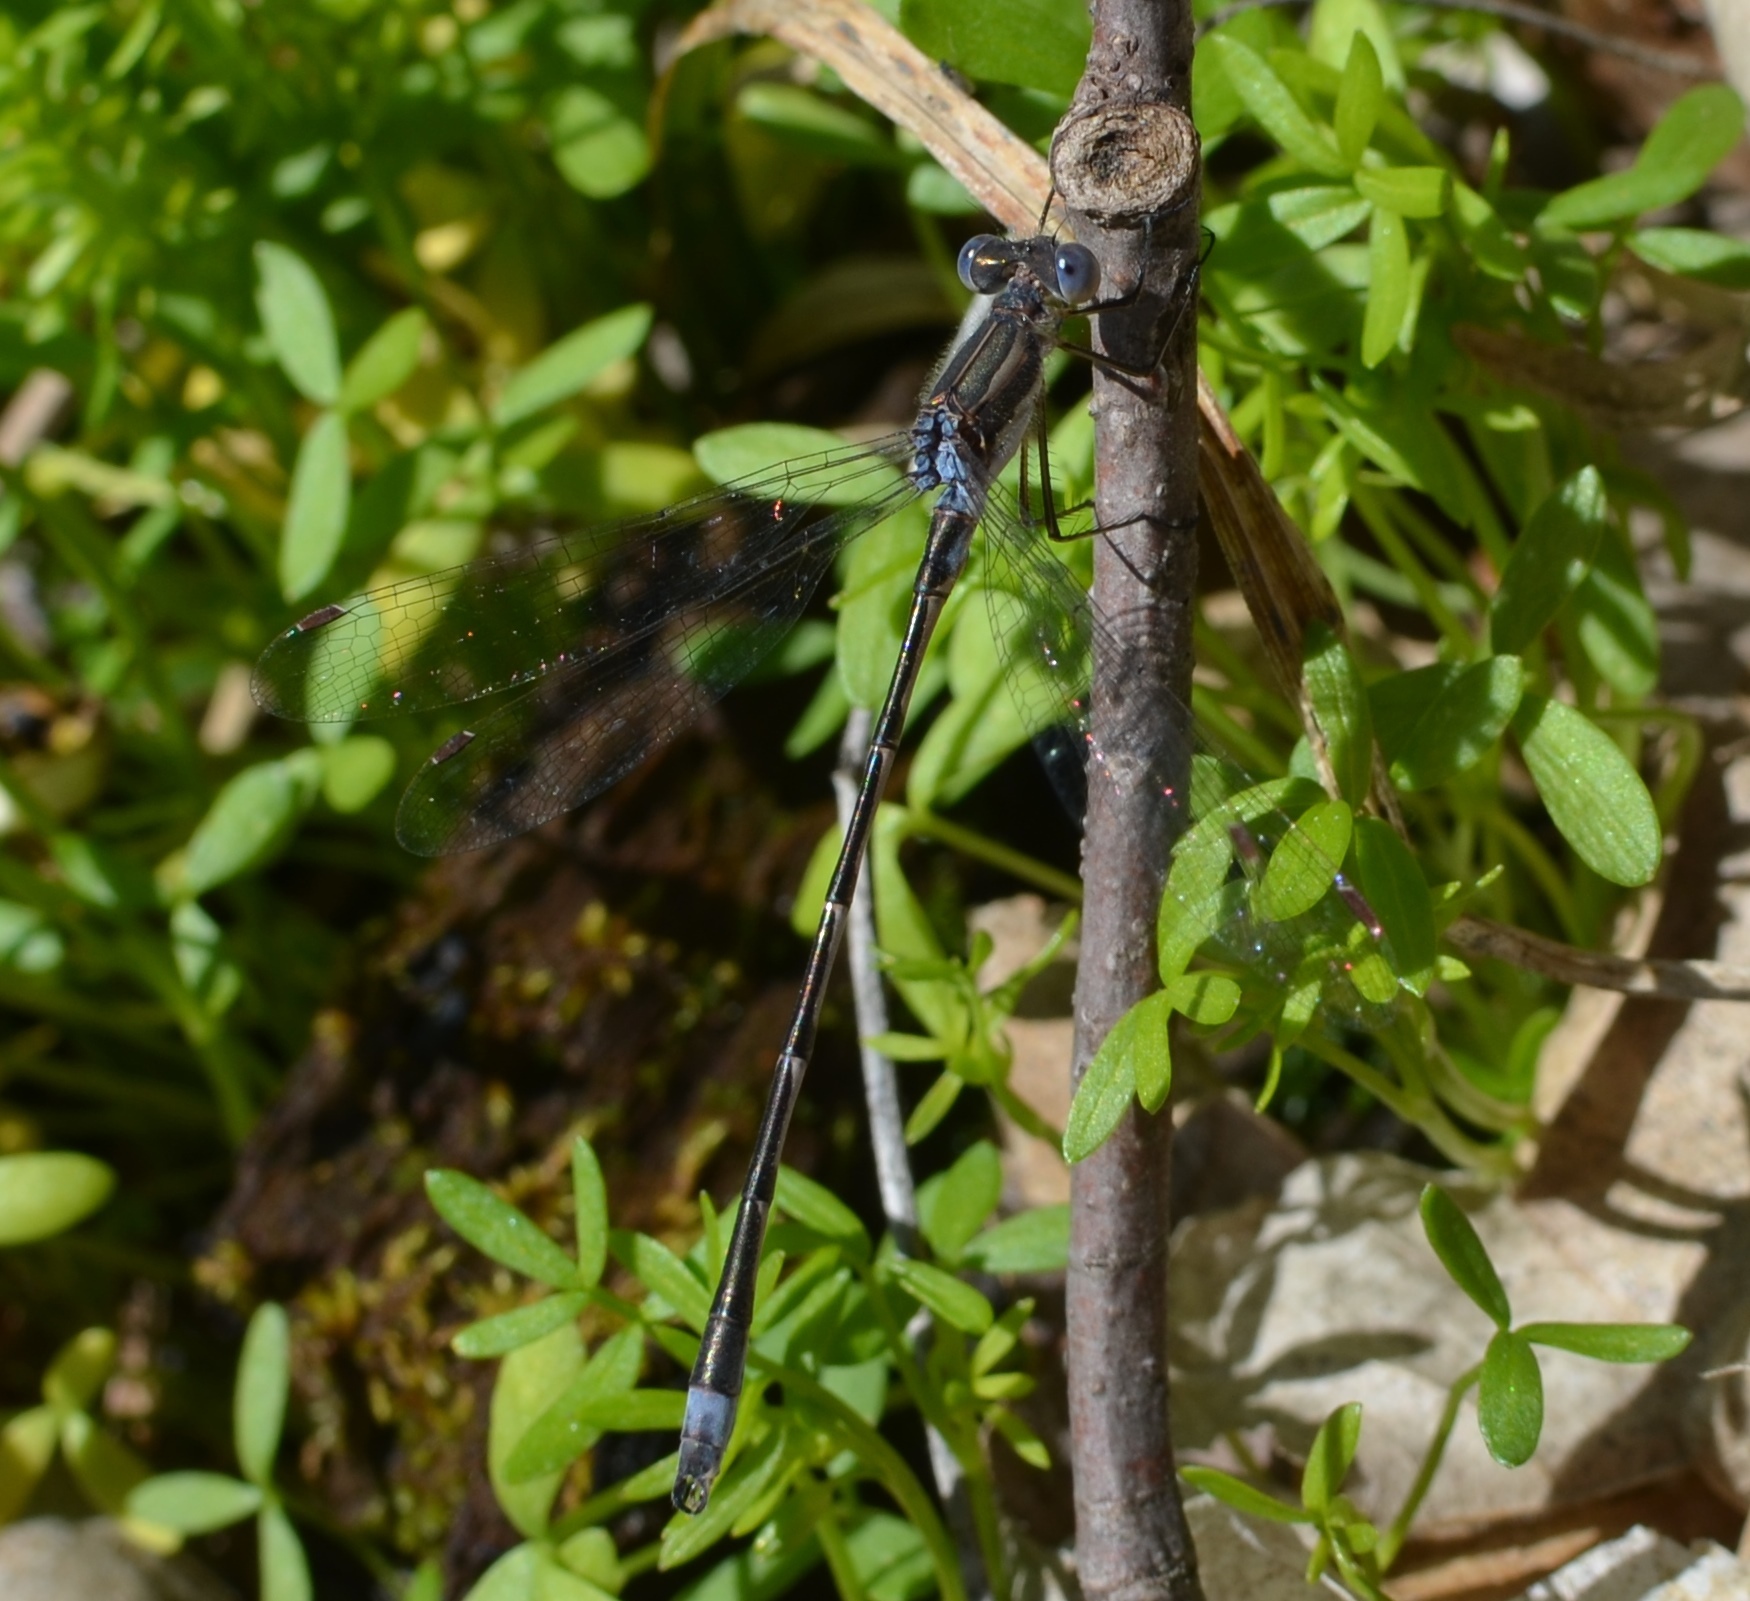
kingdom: Animalia
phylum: Arthropoda
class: Insecta
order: Odonata
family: Lestidae
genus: Lestes
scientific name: Lestes rectangularis
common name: Slender spreadwing
